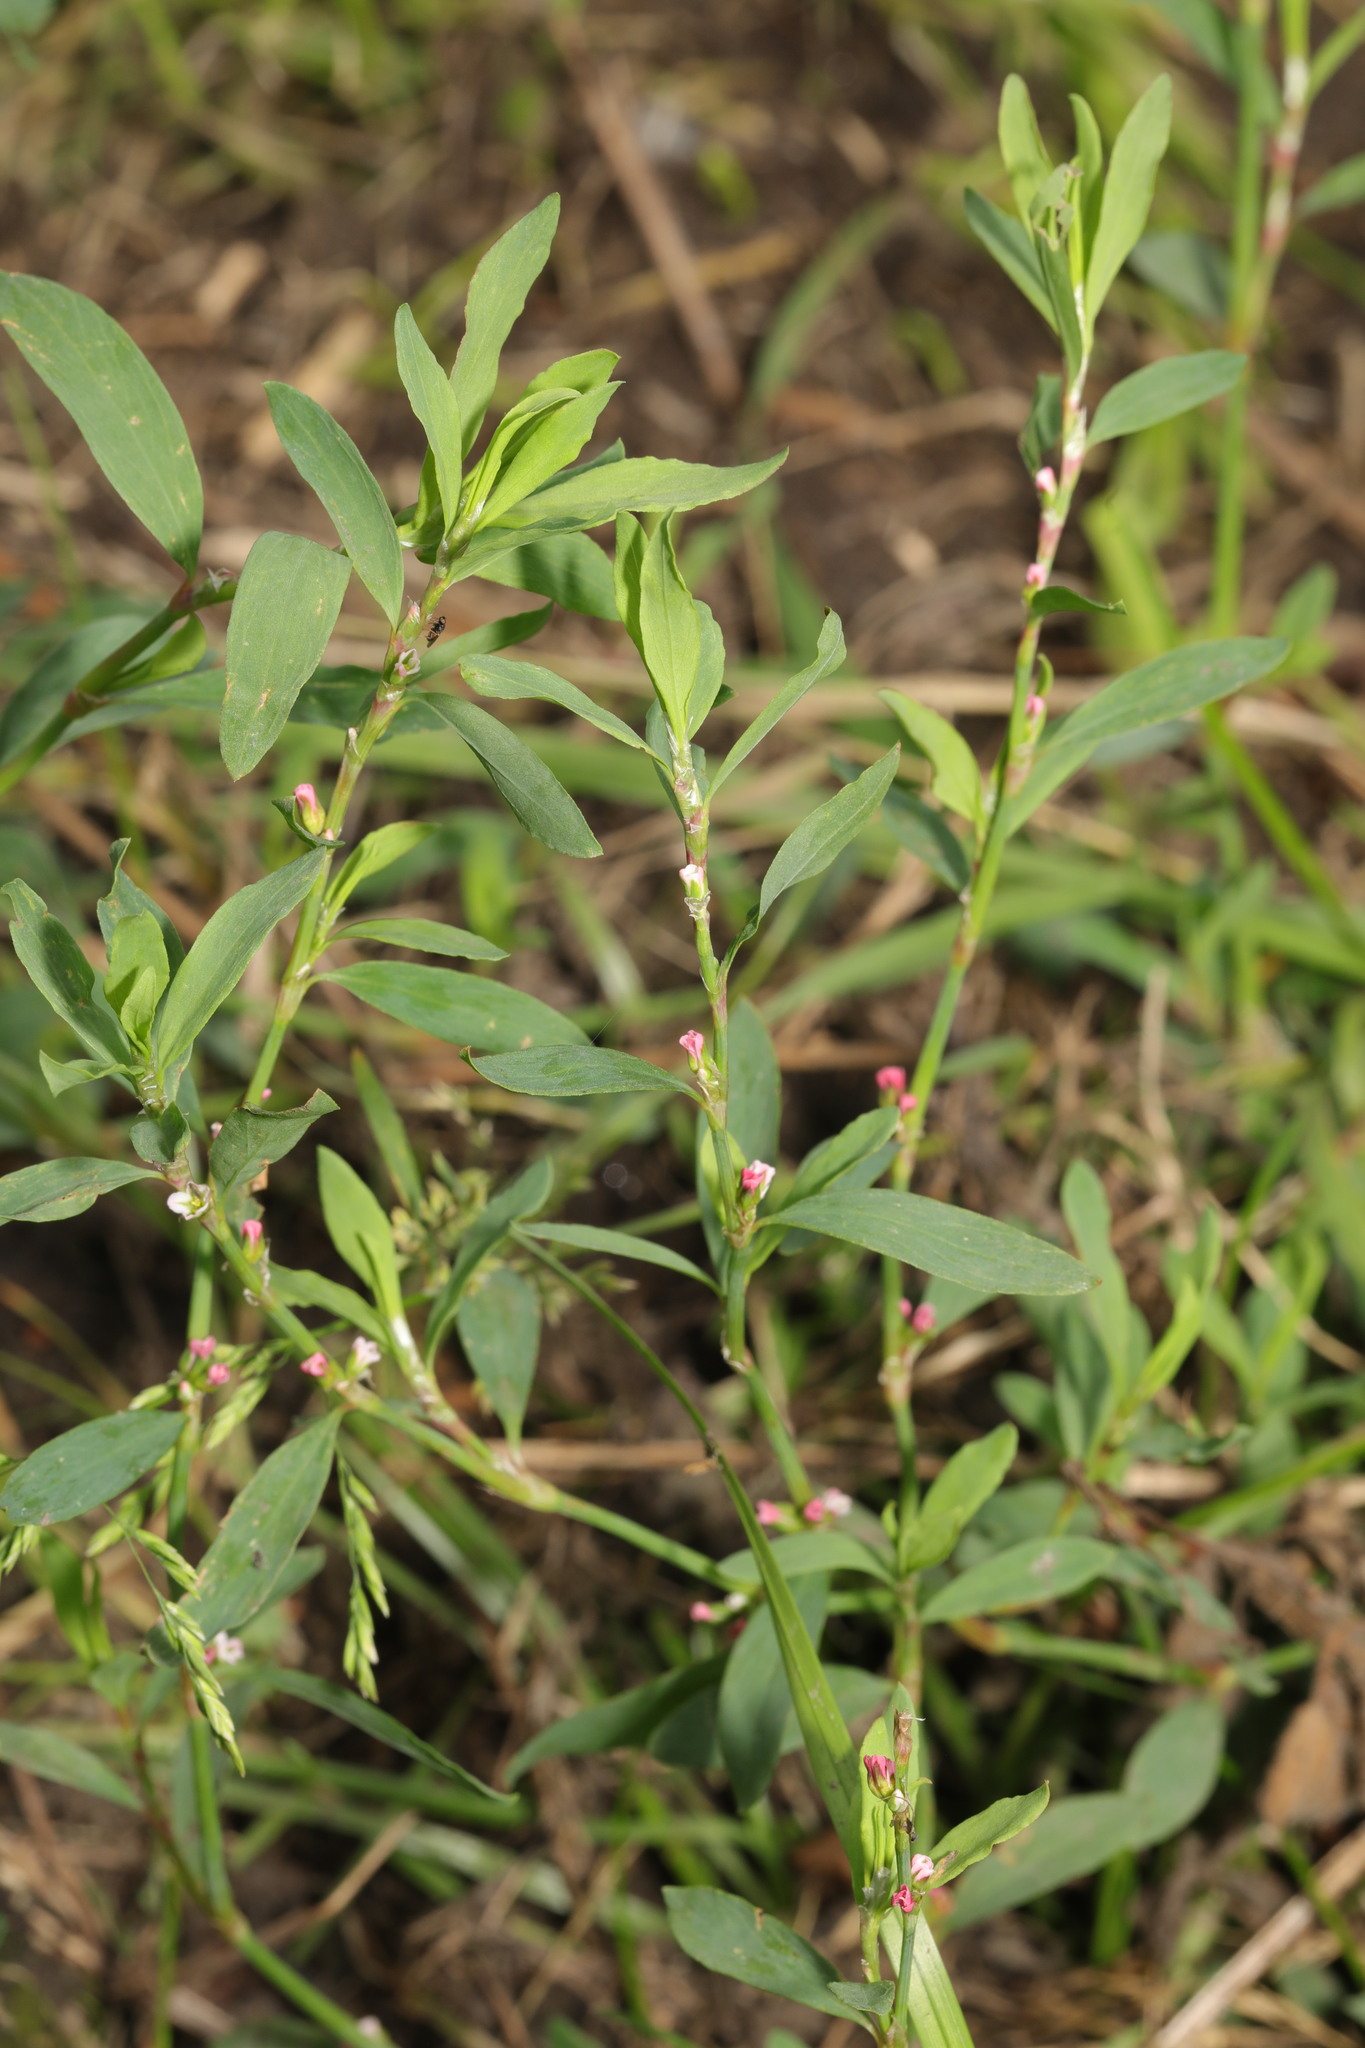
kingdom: Plantae
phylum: Tracheophyta
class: Magnoliopsida
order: Caryophyllales
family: Polygonaceae
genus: Polygonum
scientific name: Polygonum aviculare
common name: Prostrate knotweed
